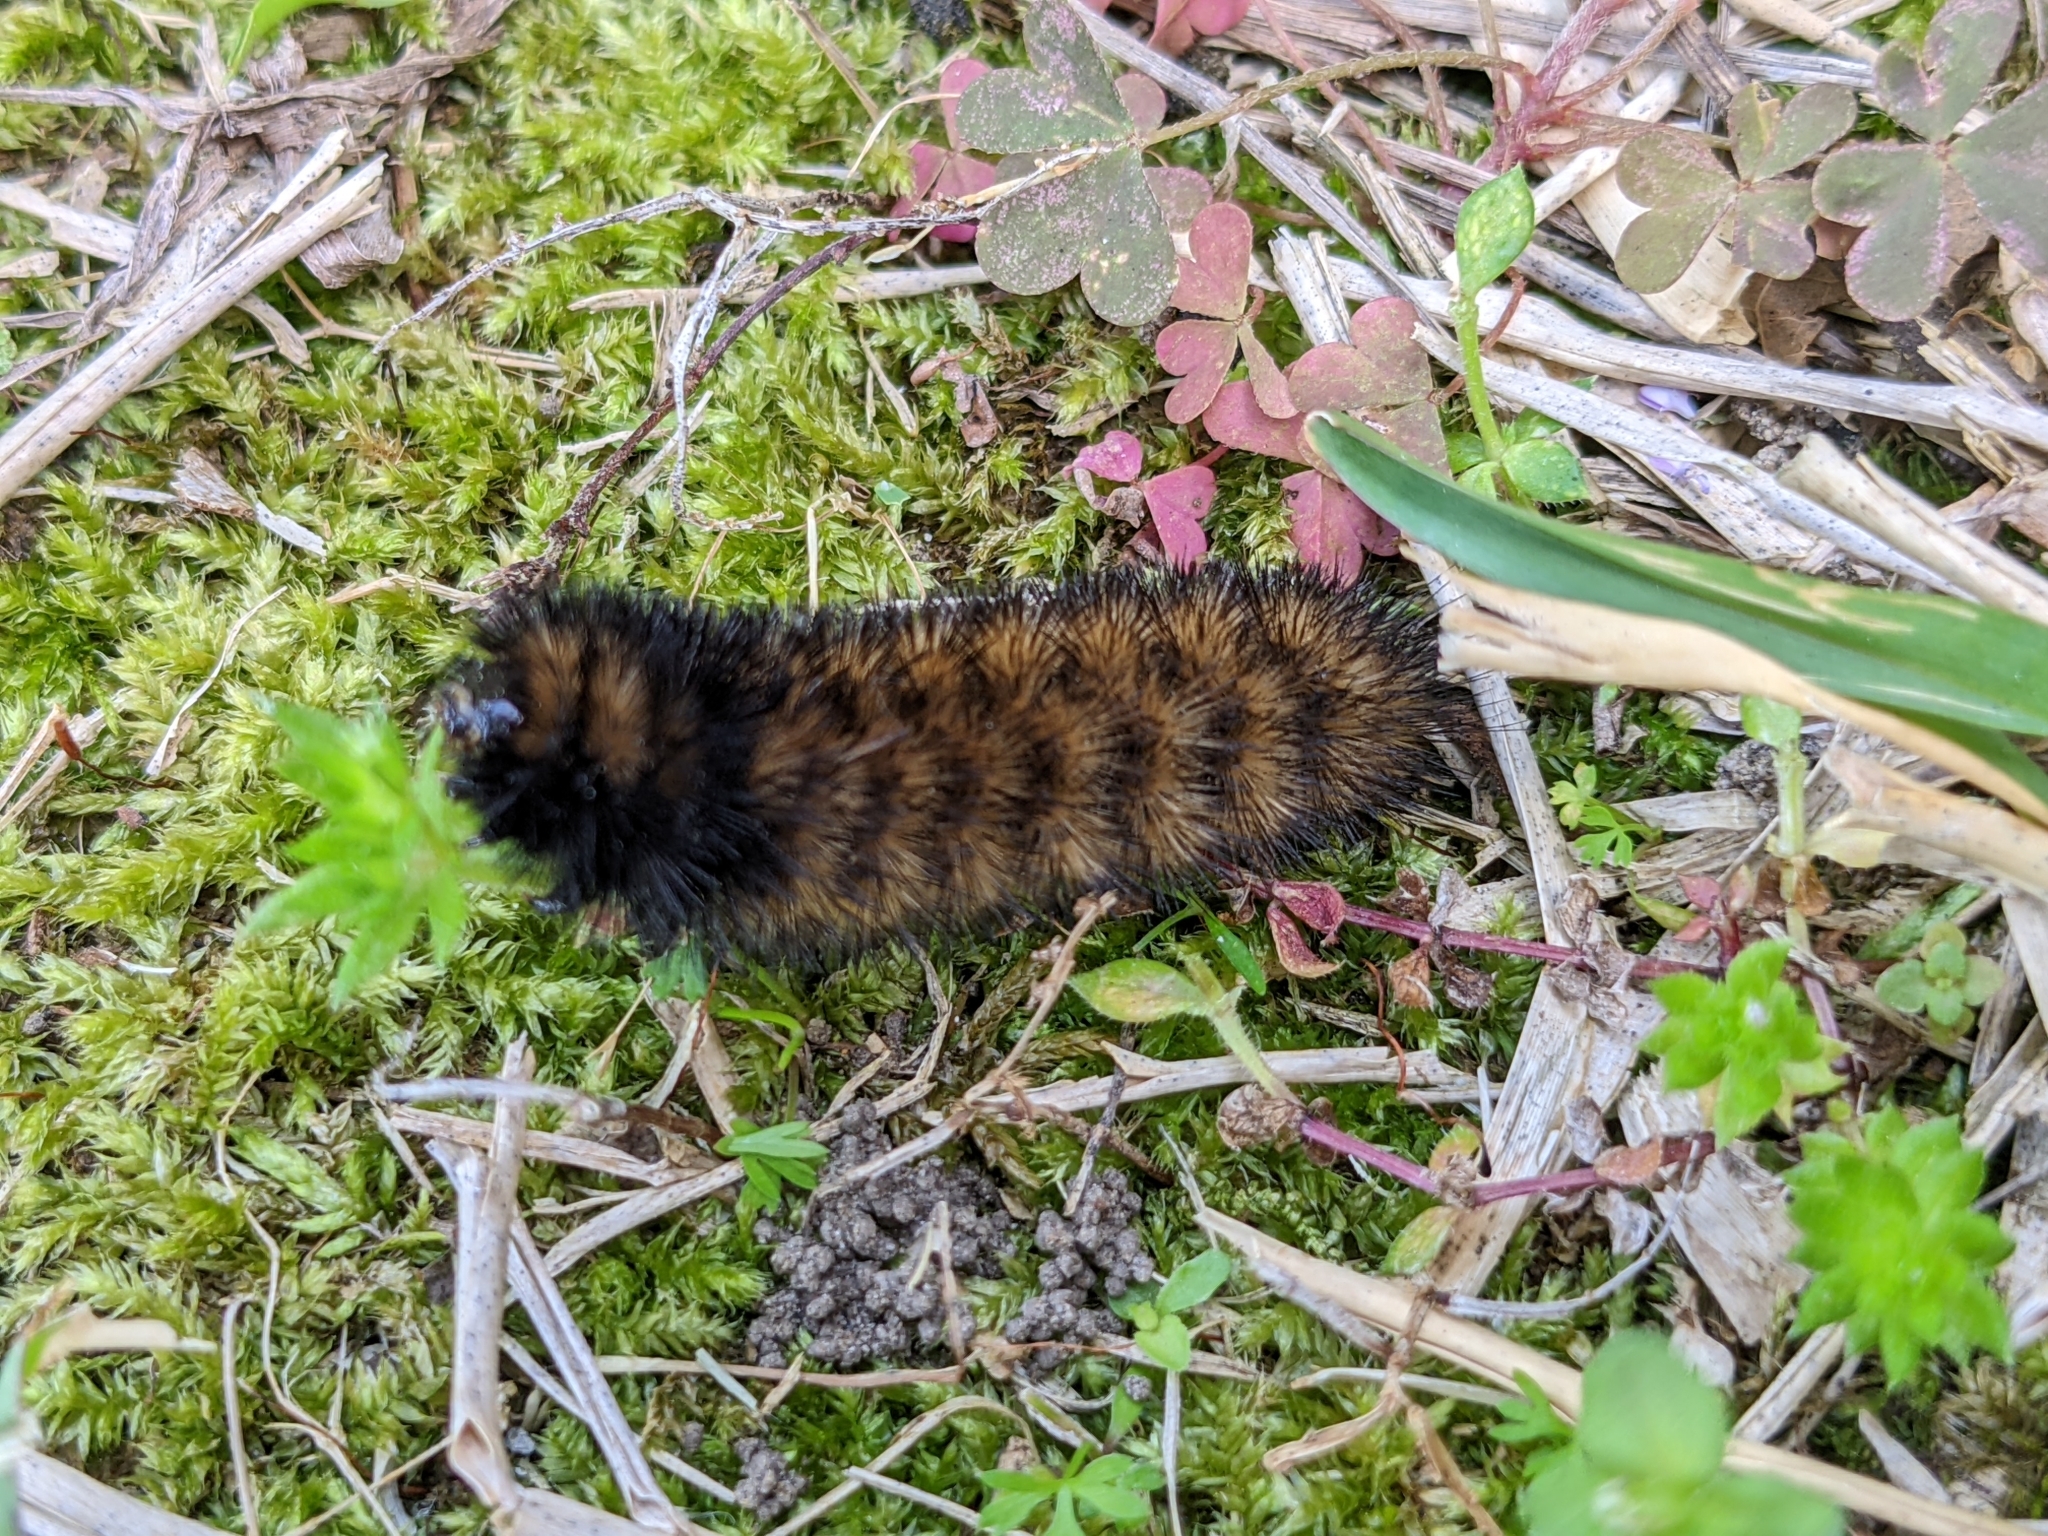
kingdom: Animalia
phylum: Arthropoda
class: Insecta
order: Lepidoptera
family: Erebidae
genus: Pyrrharctia
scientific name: Pyrrharctia isabella
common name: Isabella tiger moth
